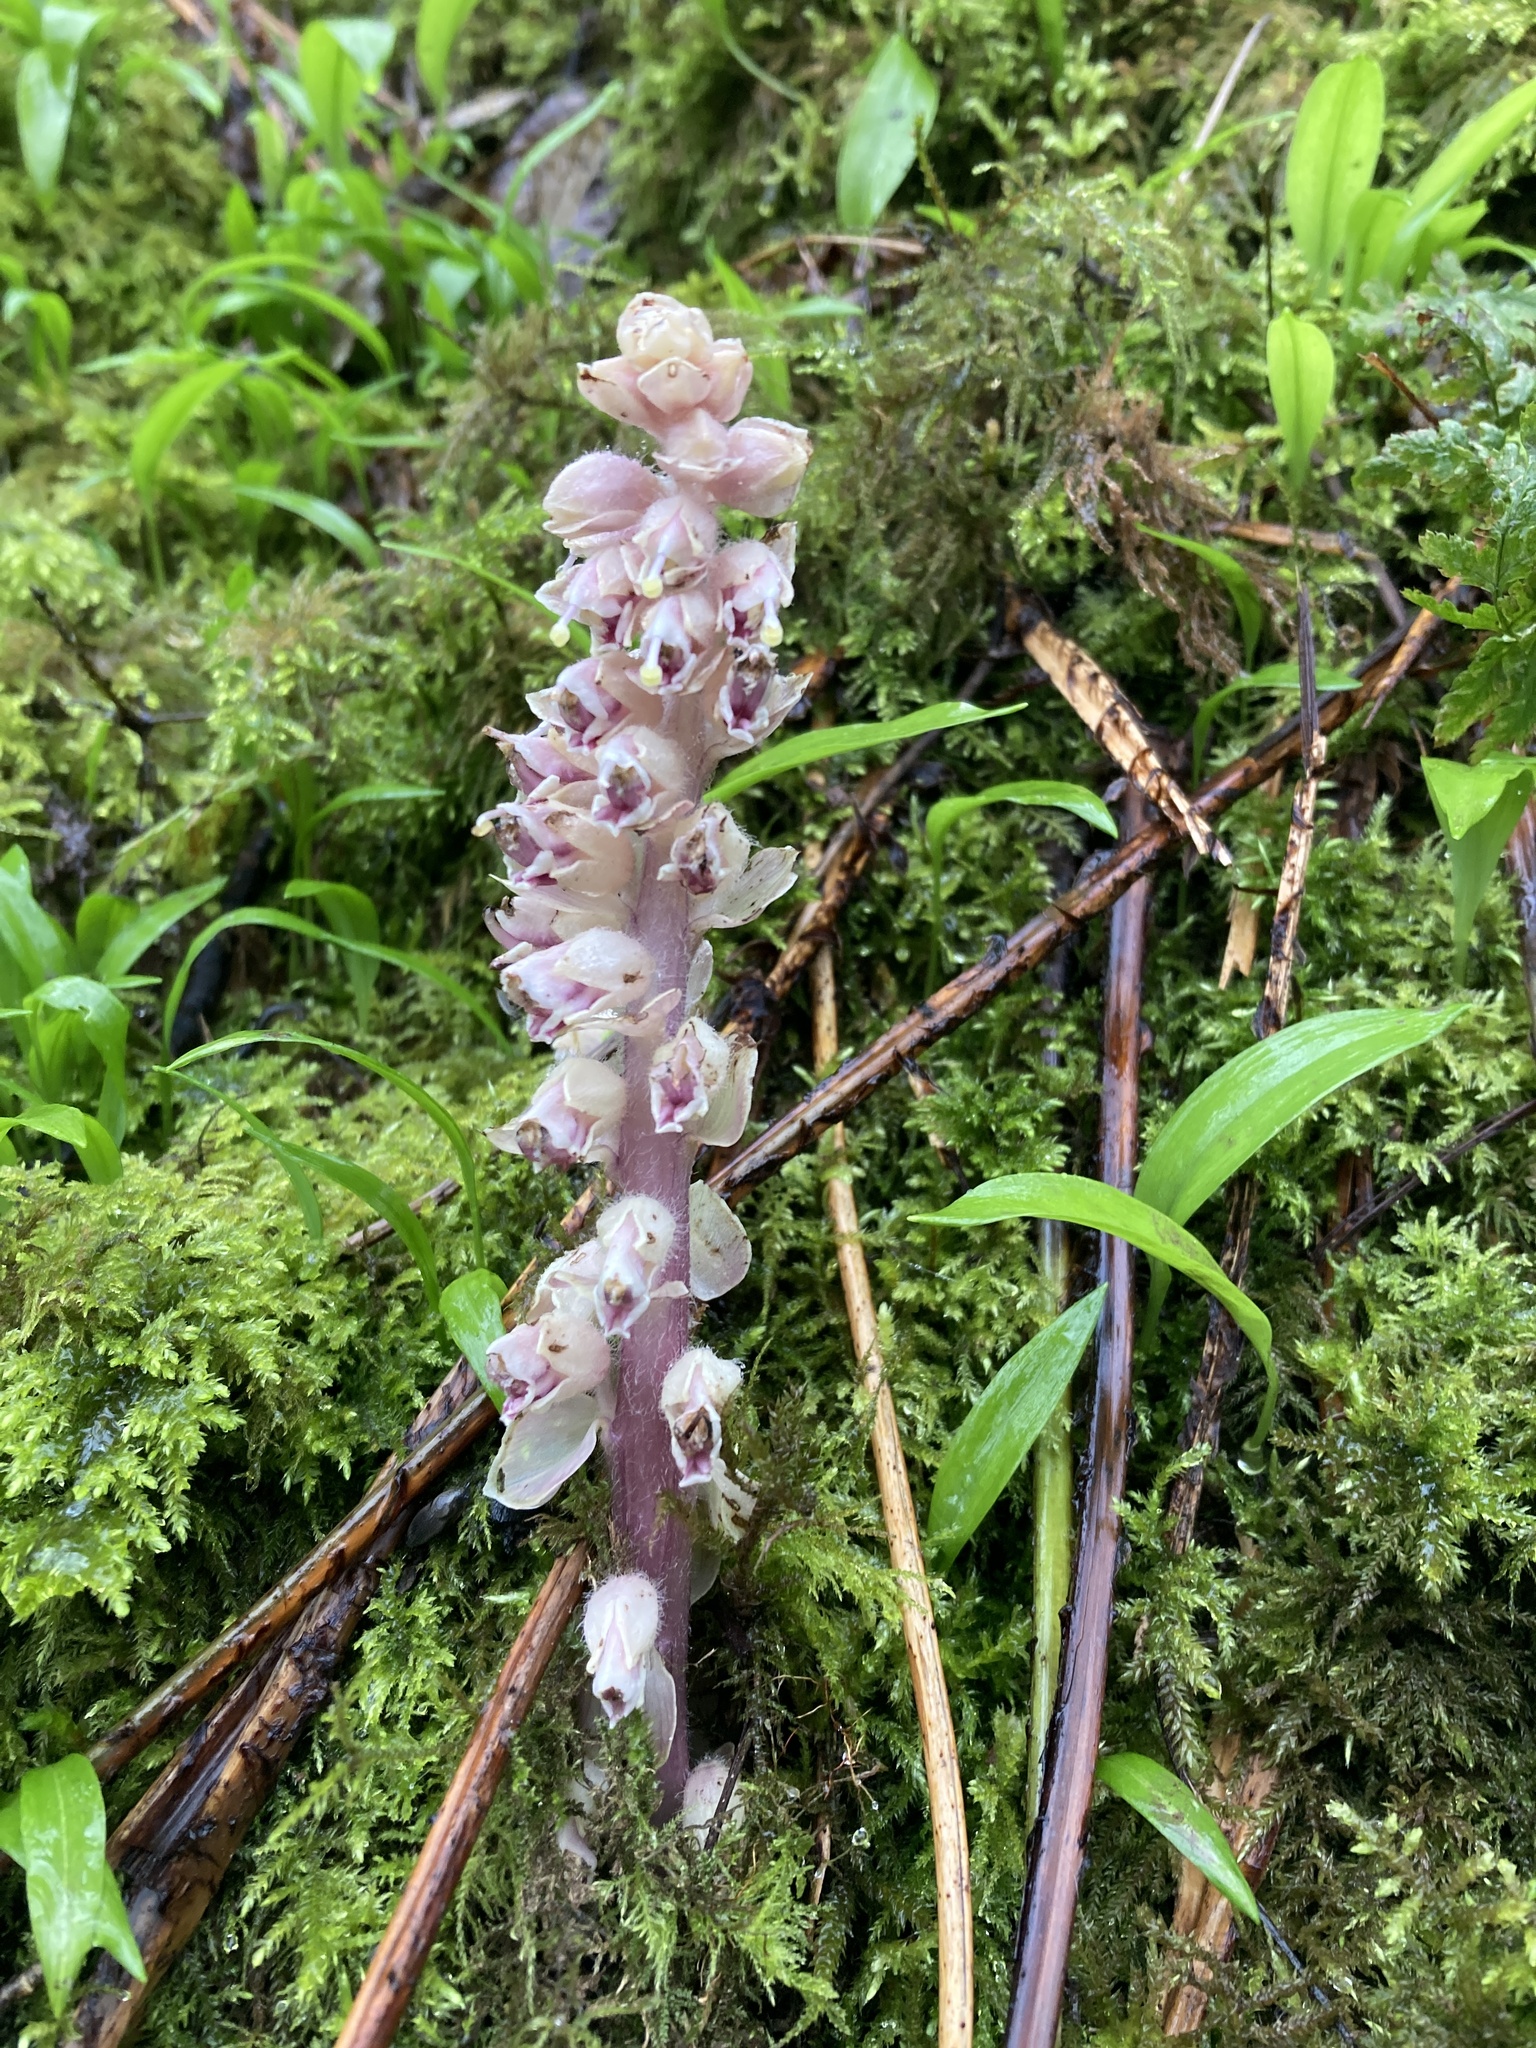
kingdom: Plantae
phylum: Tracheophyta
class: Magnoliopsida
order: Lamiales
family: Orobanchaceae
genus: Lathraea
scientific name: Lathraea squamaria
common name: Toothwort
